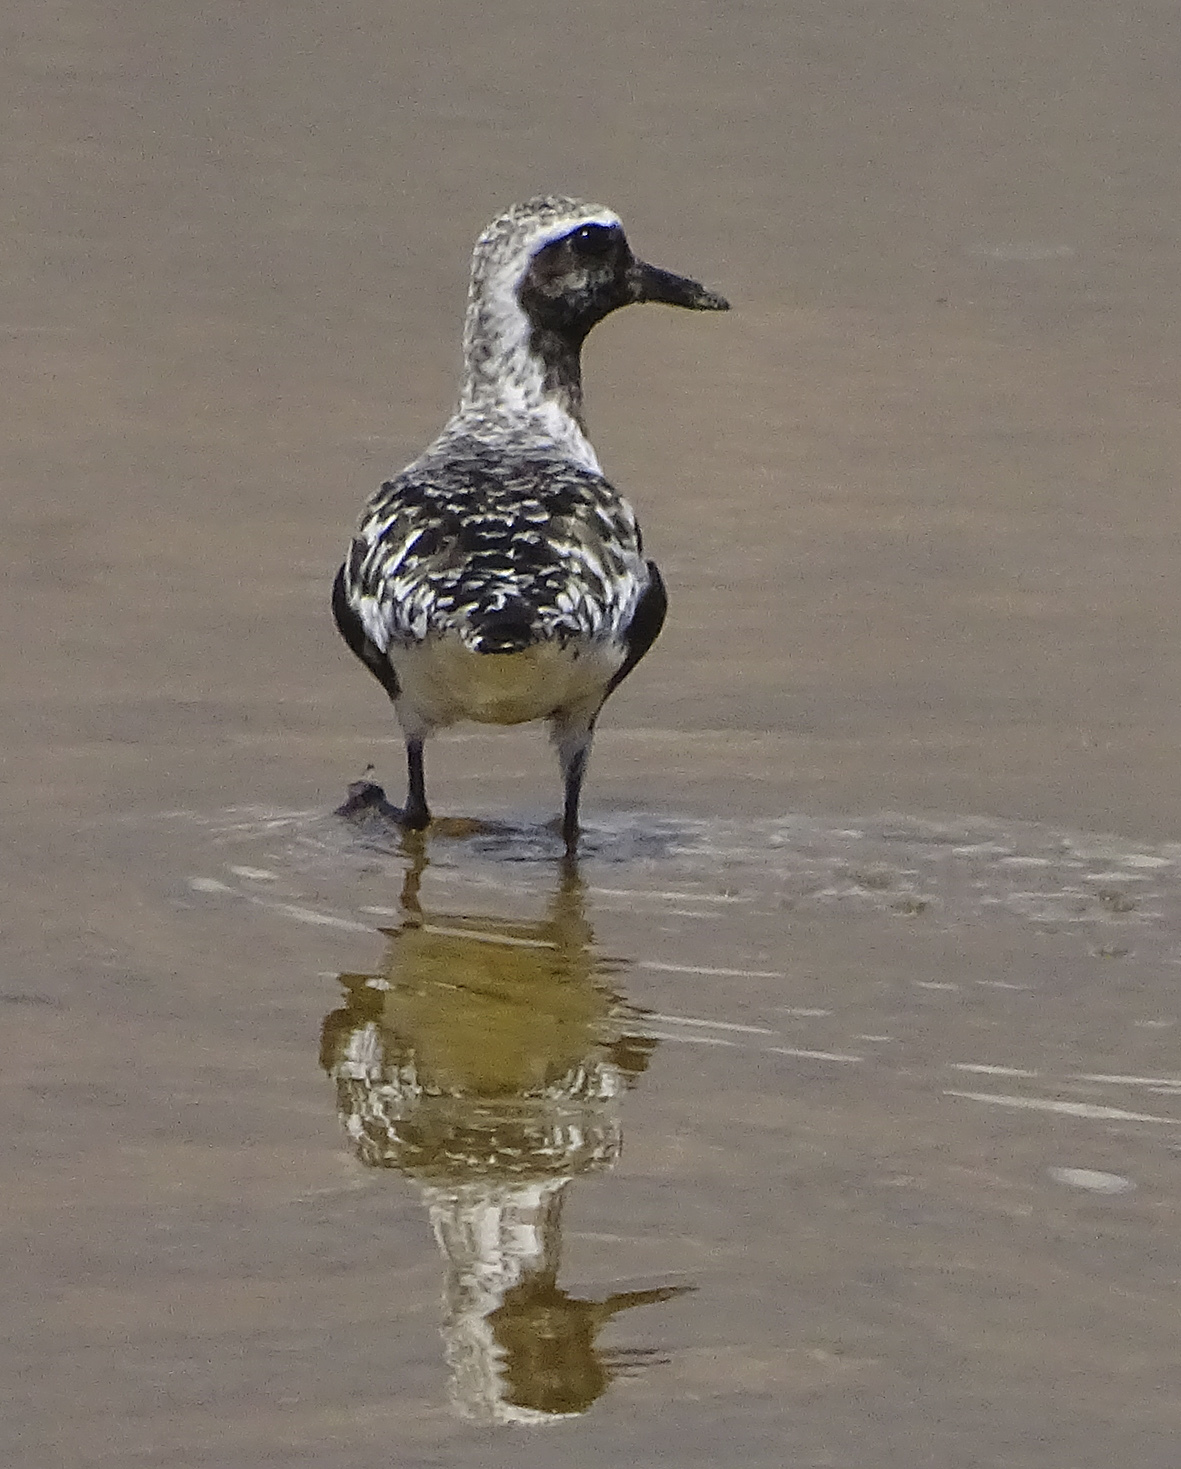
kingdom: Animalia
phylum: Chordata
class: Aves
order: Charadriiformes
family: Charadriidae
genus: Pluvialis
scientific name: Pluvialis squatarola
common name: Grey plover
